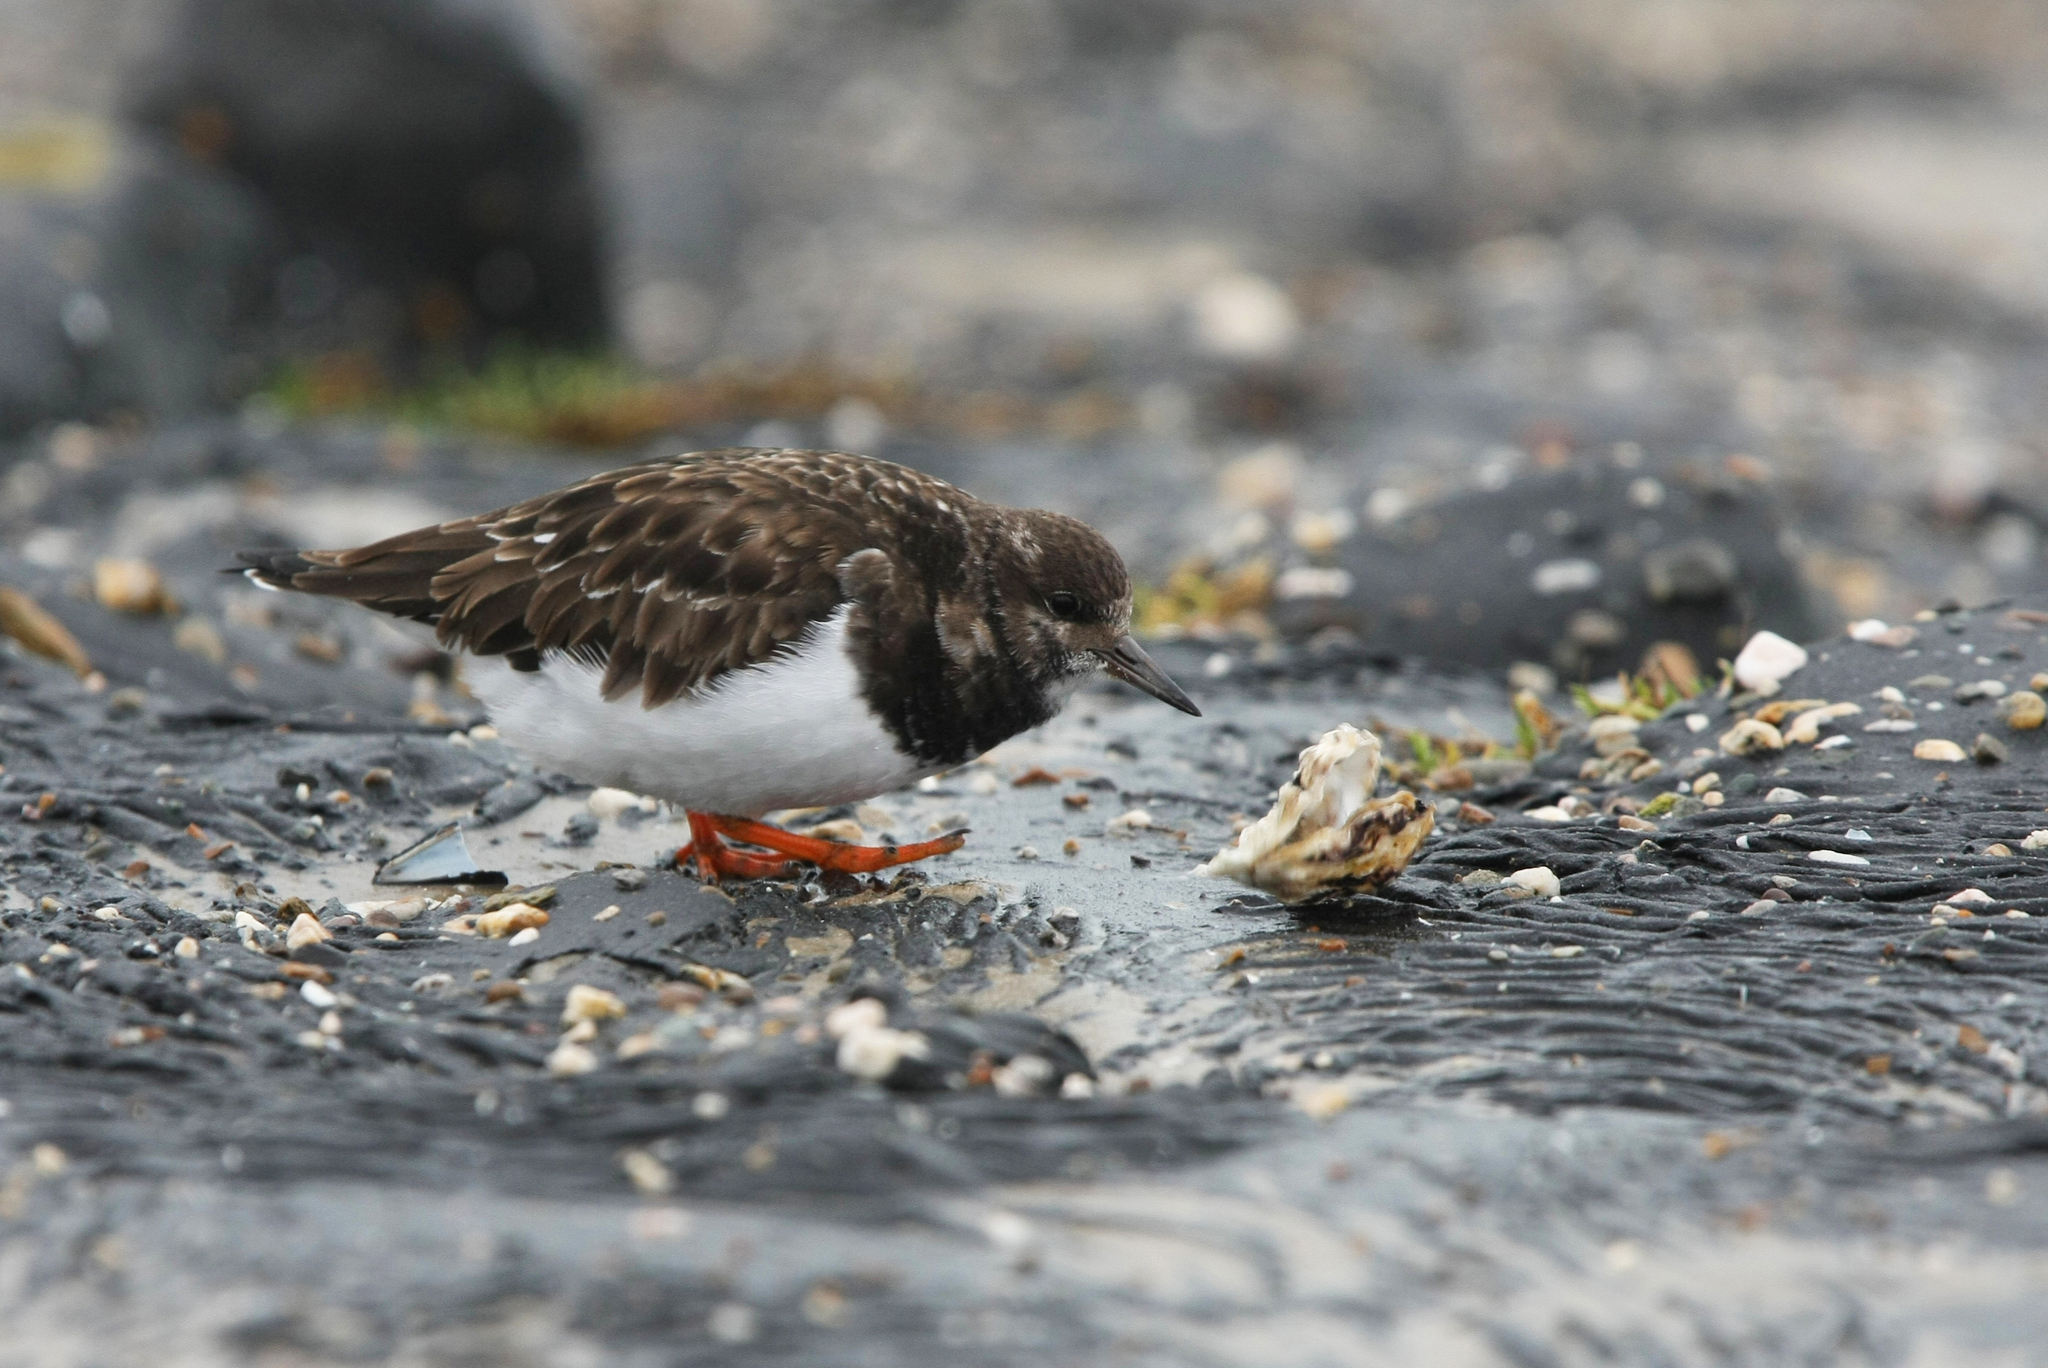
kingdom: Animalia
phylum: Chordata
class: Aves
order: Charadriiformes
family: Scolopacidae
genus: Arenaria
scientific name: Arenaria interpres
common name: Ruddy turnstone
